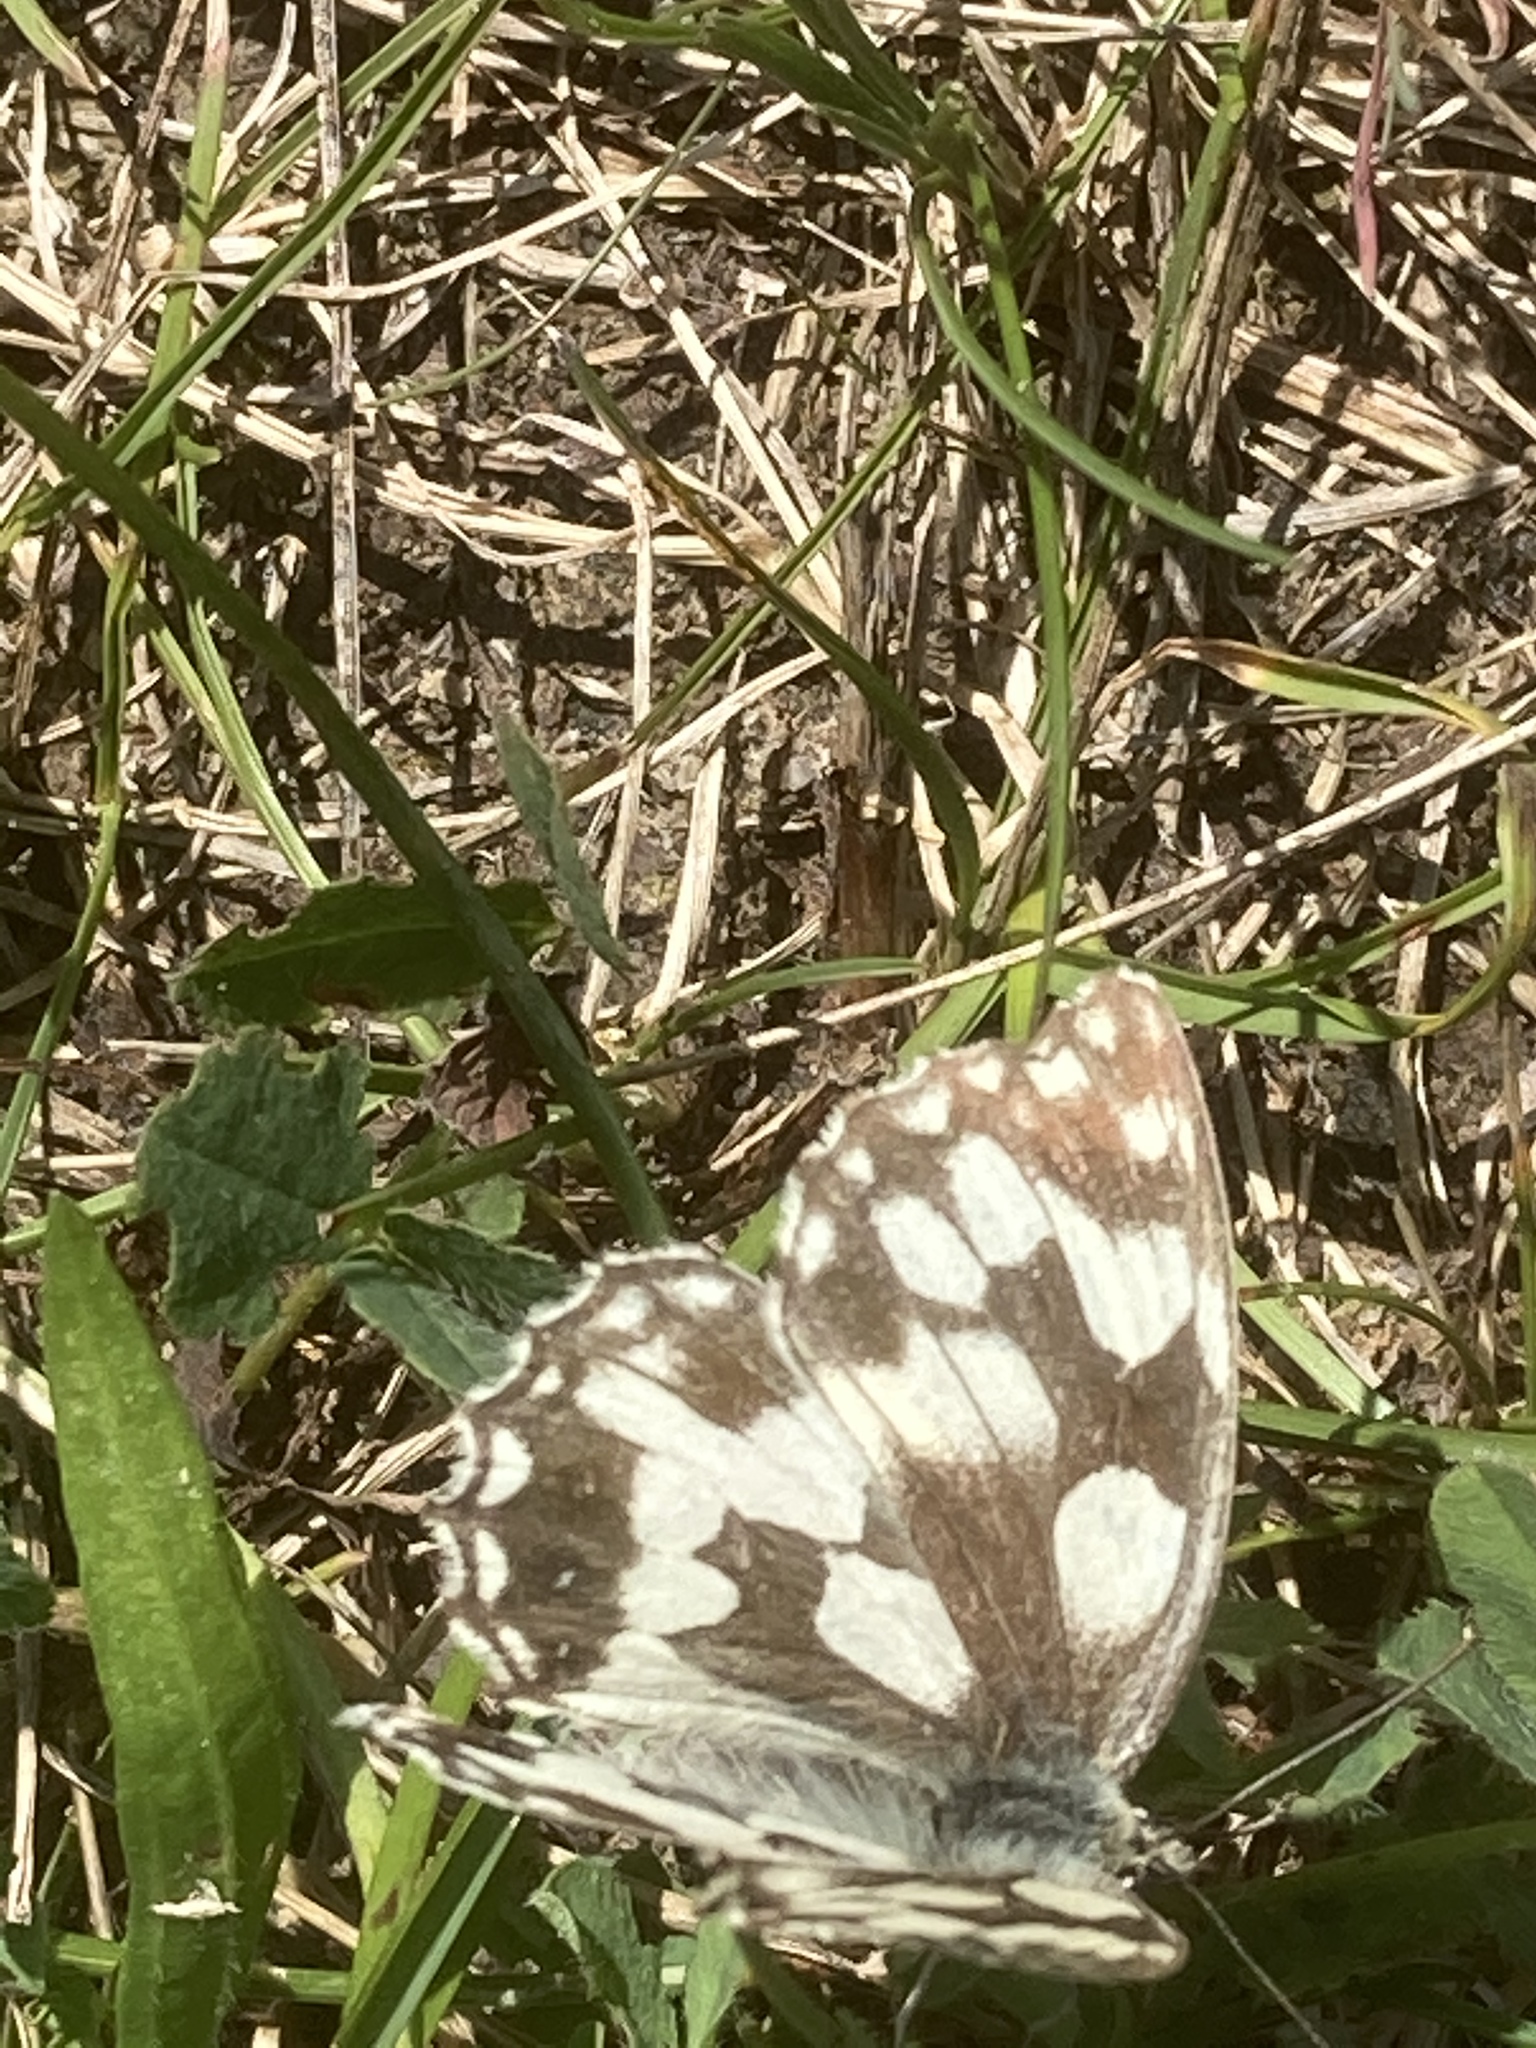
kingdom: Animalia
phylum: Arthropoda
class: Insecta
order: Lepidoptera
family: Nymphalidae
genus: Melanargia
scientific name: Melanargia galathea
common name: Marbled white
